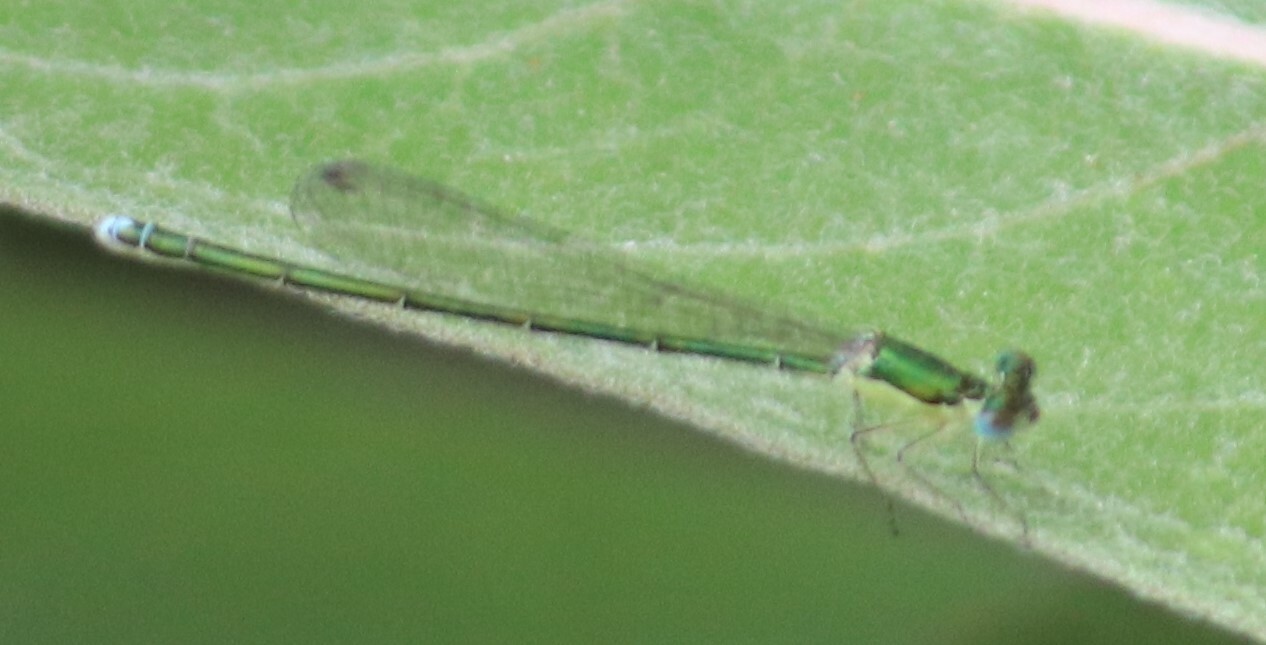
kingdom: Animalia
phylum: Arthropoda
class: Insecta
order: Odonata
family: Coenagrionidae
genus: Nehalennia
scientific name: Nehalennia irene
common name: Sedge sprite
